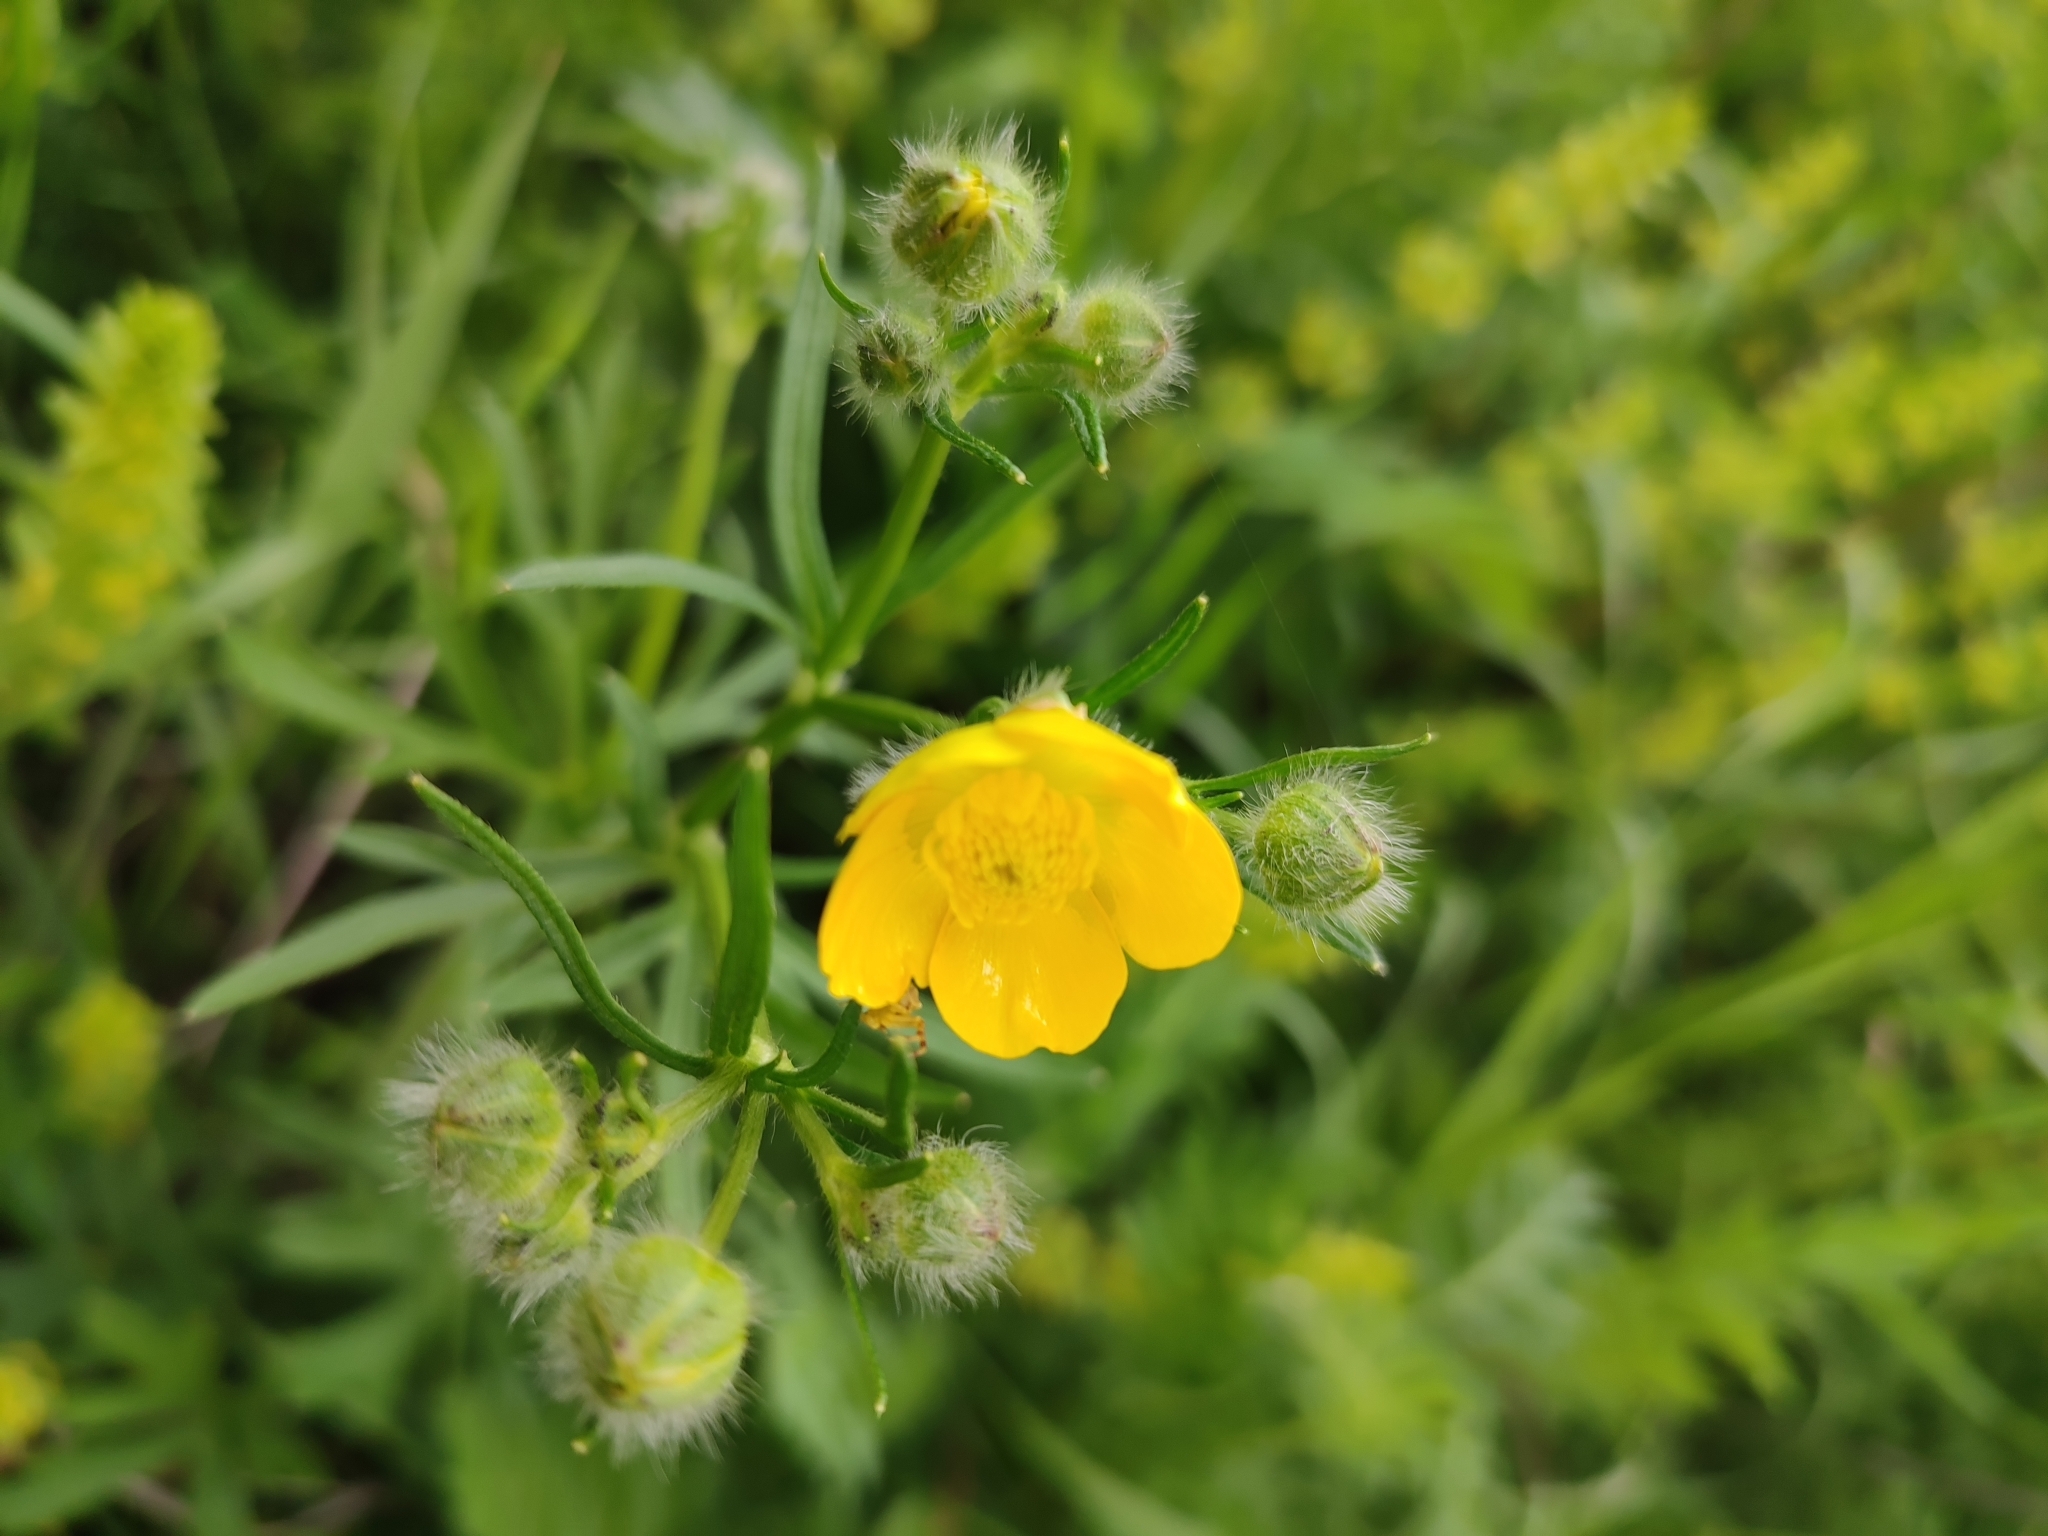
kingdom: Plantae
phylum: Tracheophyta
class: Magnoliopsida
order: Ranunculales
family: Ranunculaceae
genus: Ranunculus
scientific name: Ranunculus polyanthemos
